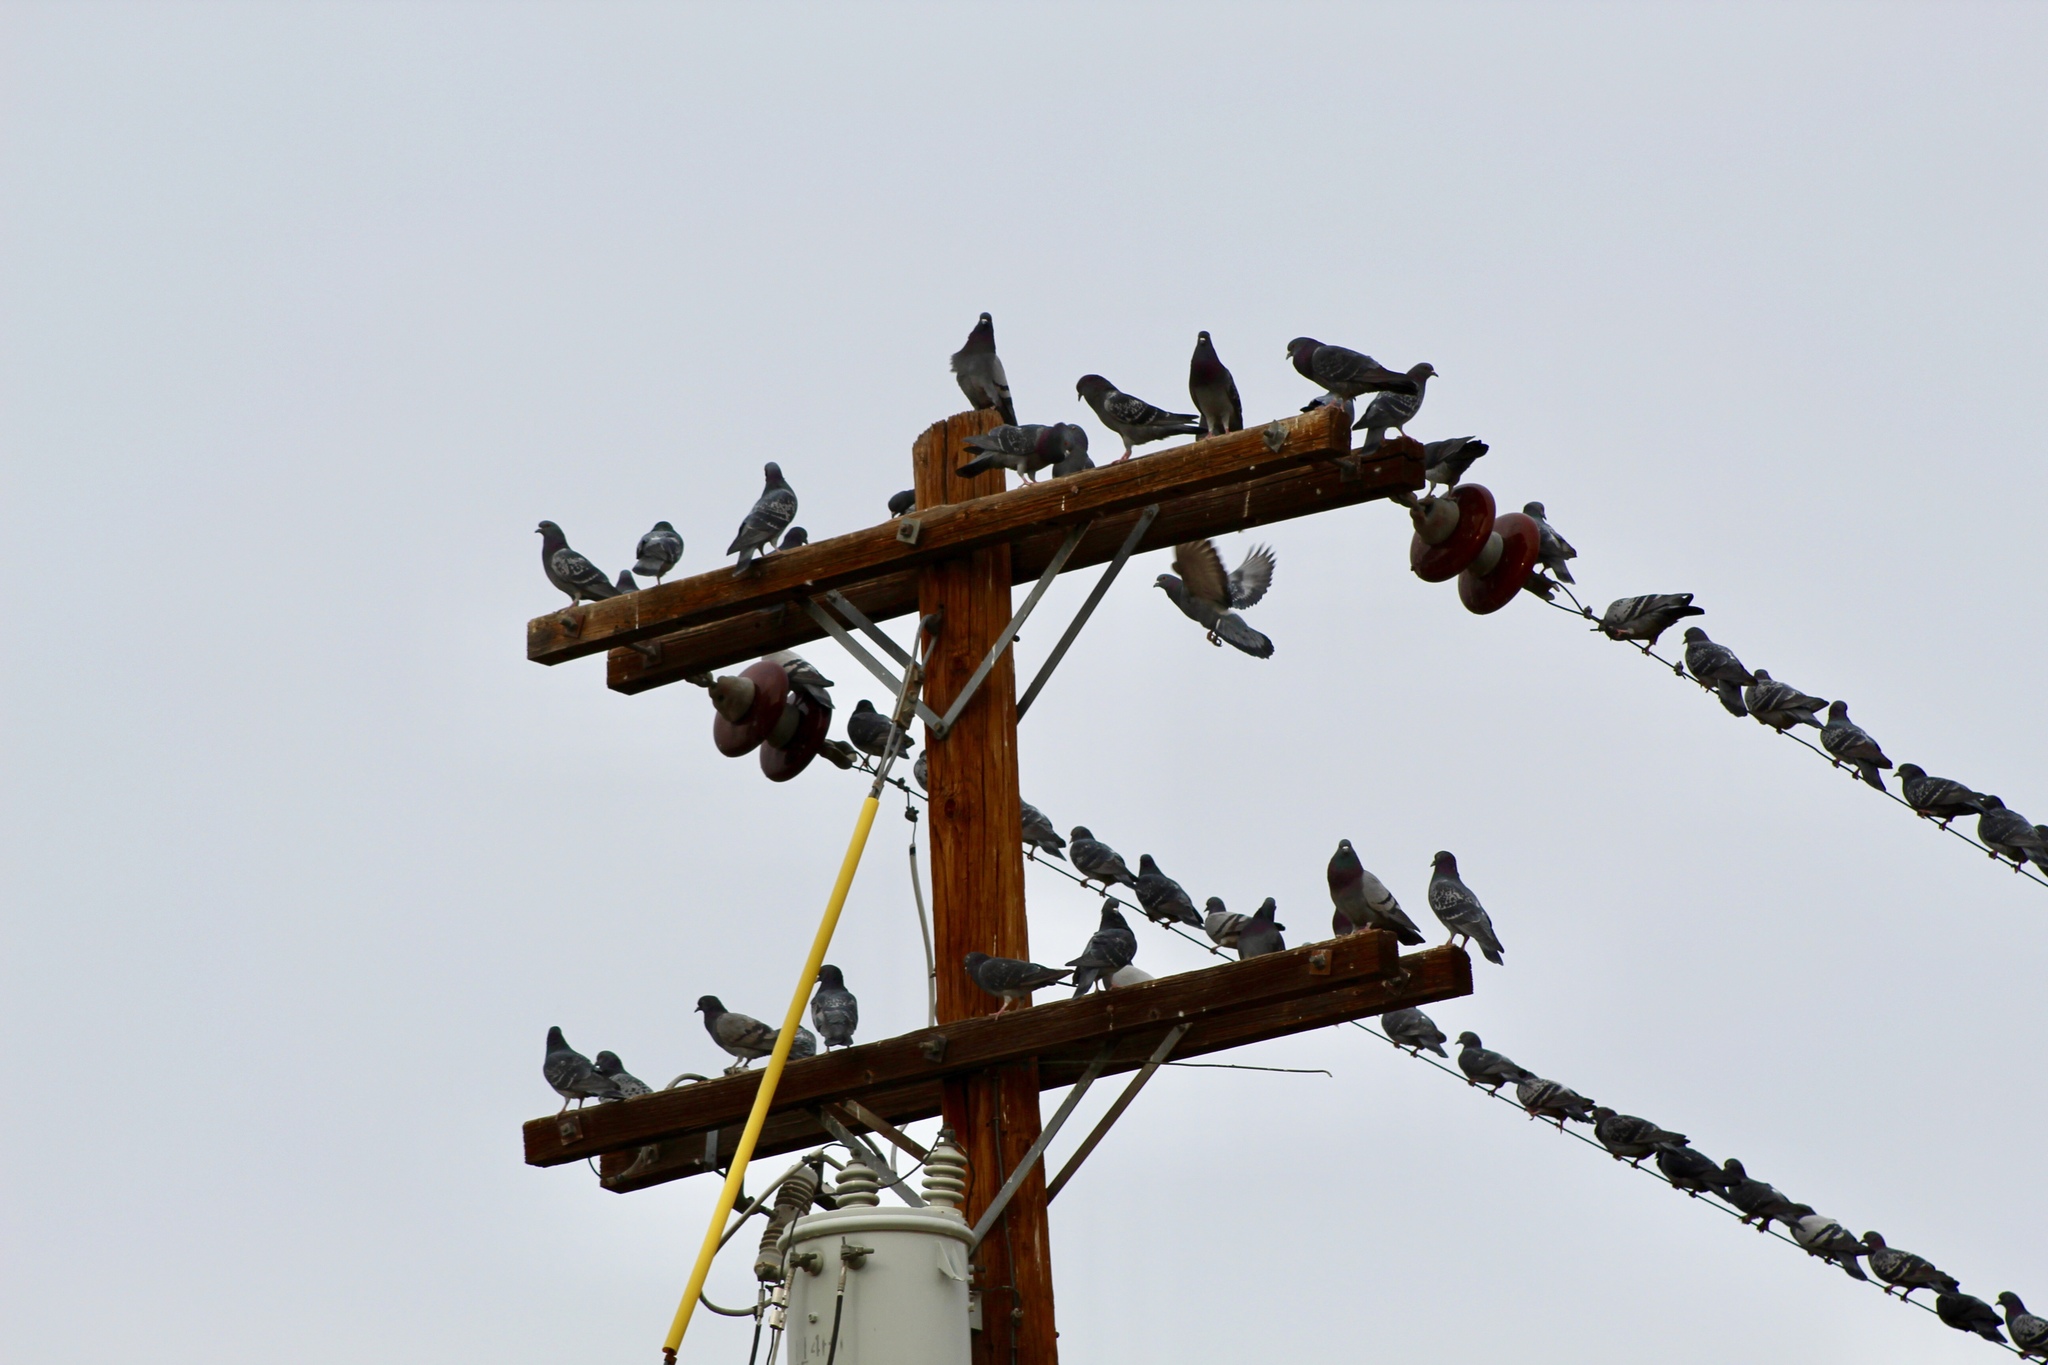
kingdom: Animalia
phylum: Chordata
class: Aves
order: Columbiformes
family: Columbidae
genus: Columba
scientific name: Columba livia
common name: Rock pigeon
